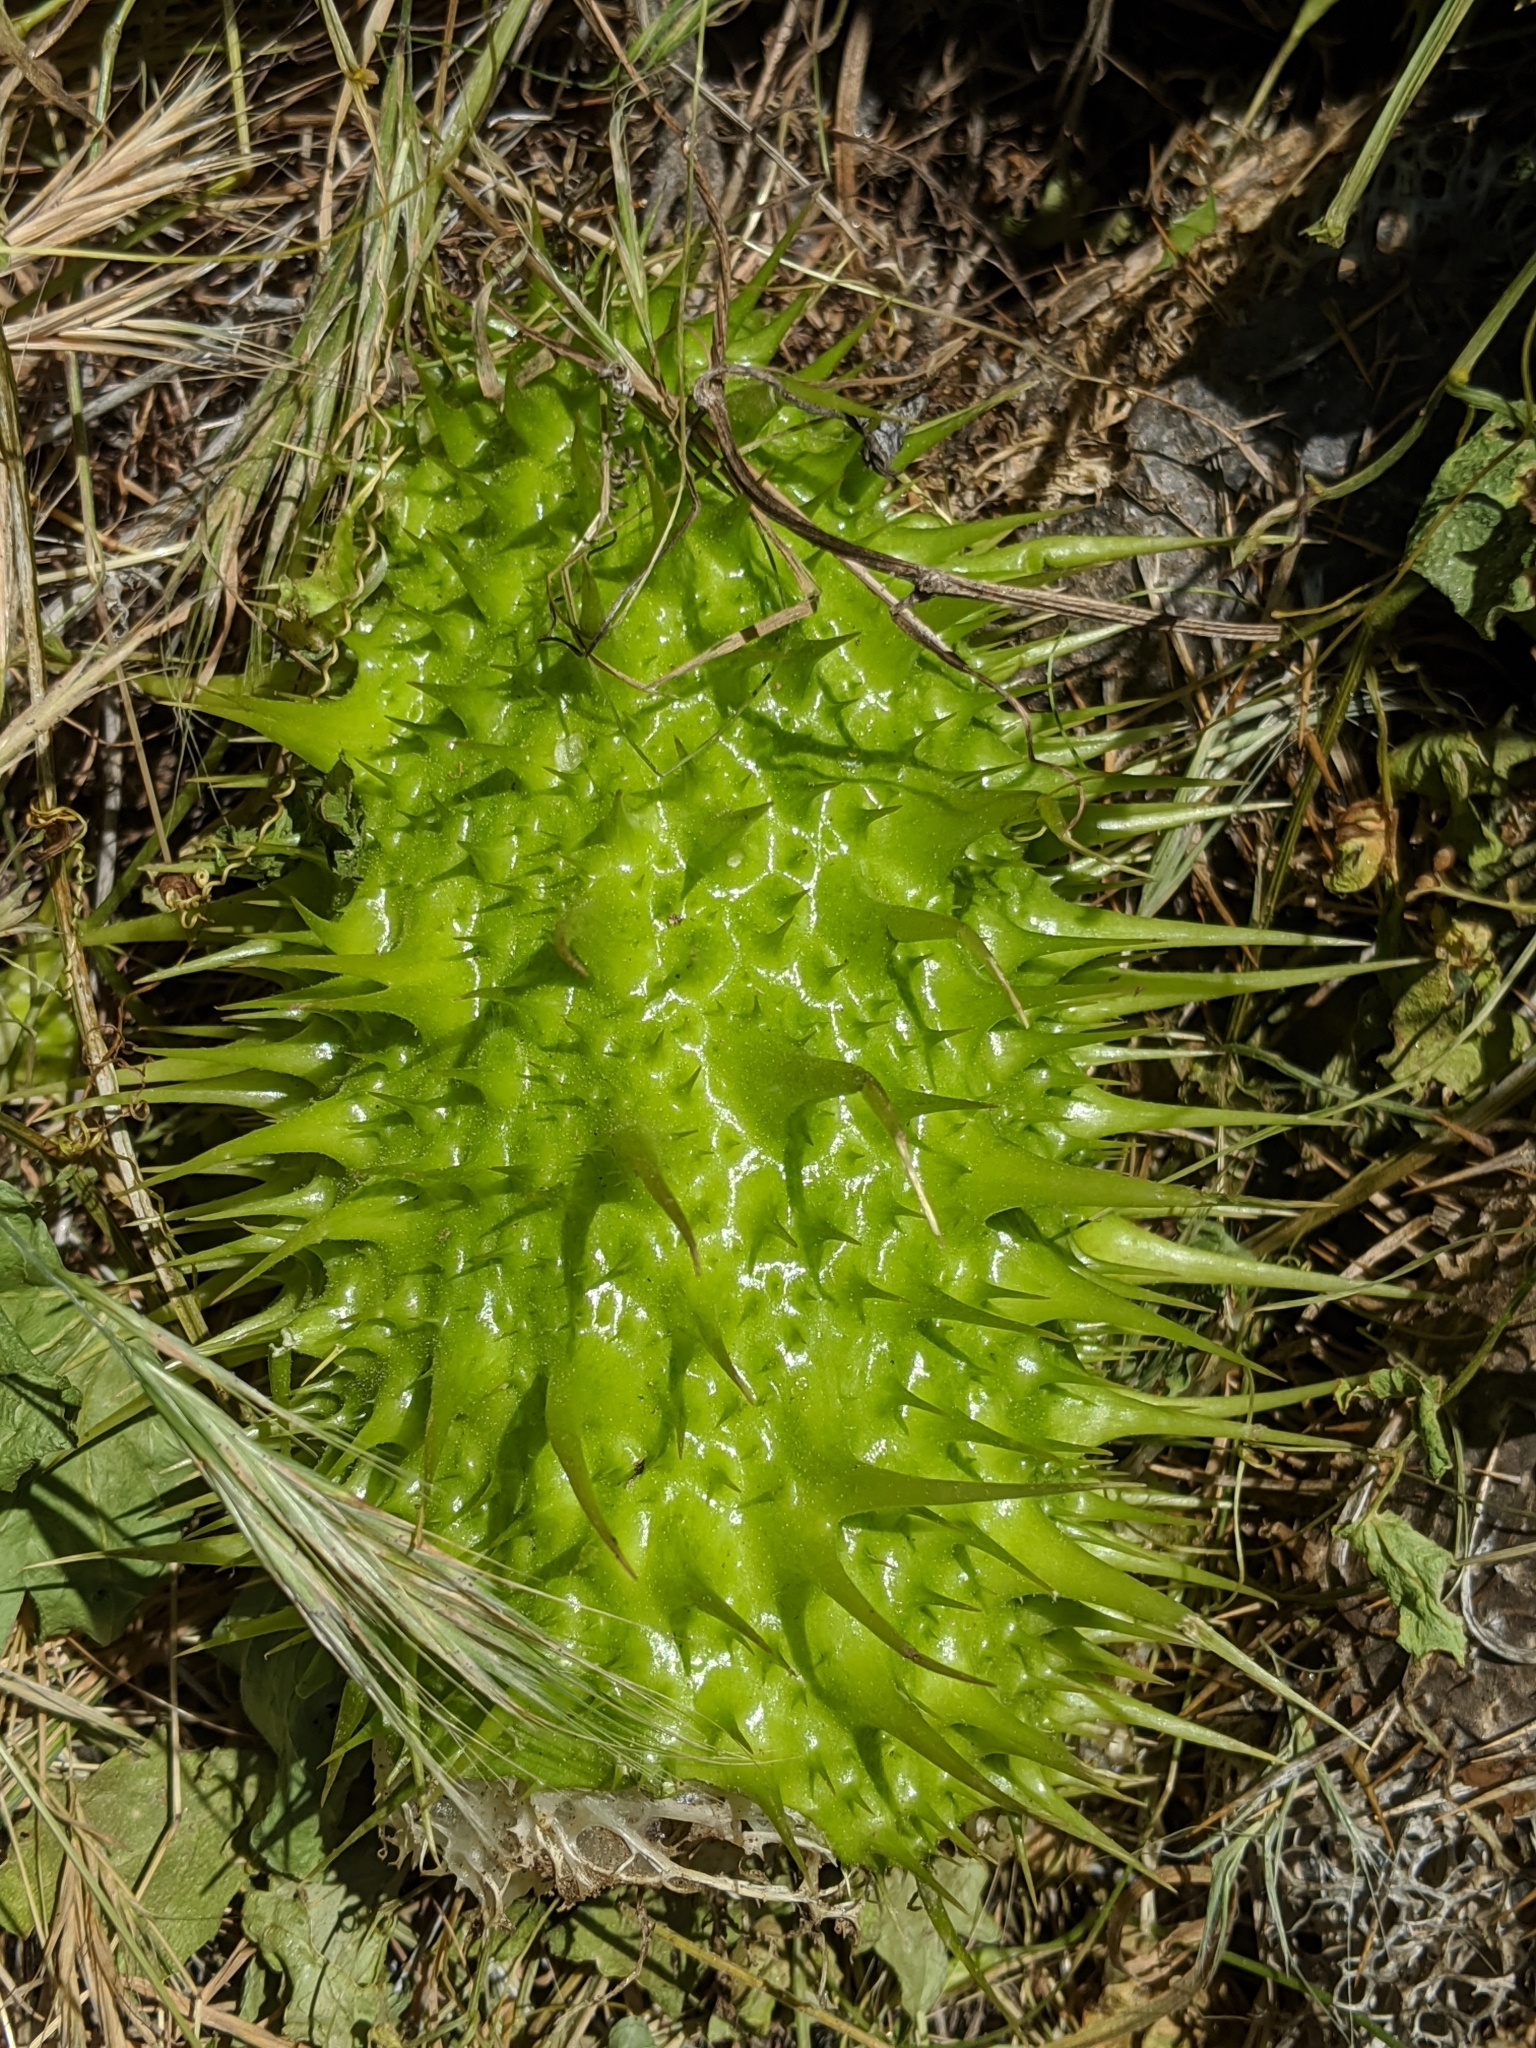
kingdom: Plantae
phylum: Tracheophyta
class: Magnoliopsida
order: Cucurbitales
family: Cucurbitaceae
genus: Marah
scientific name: Marah horrida
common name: Sierra manroot
